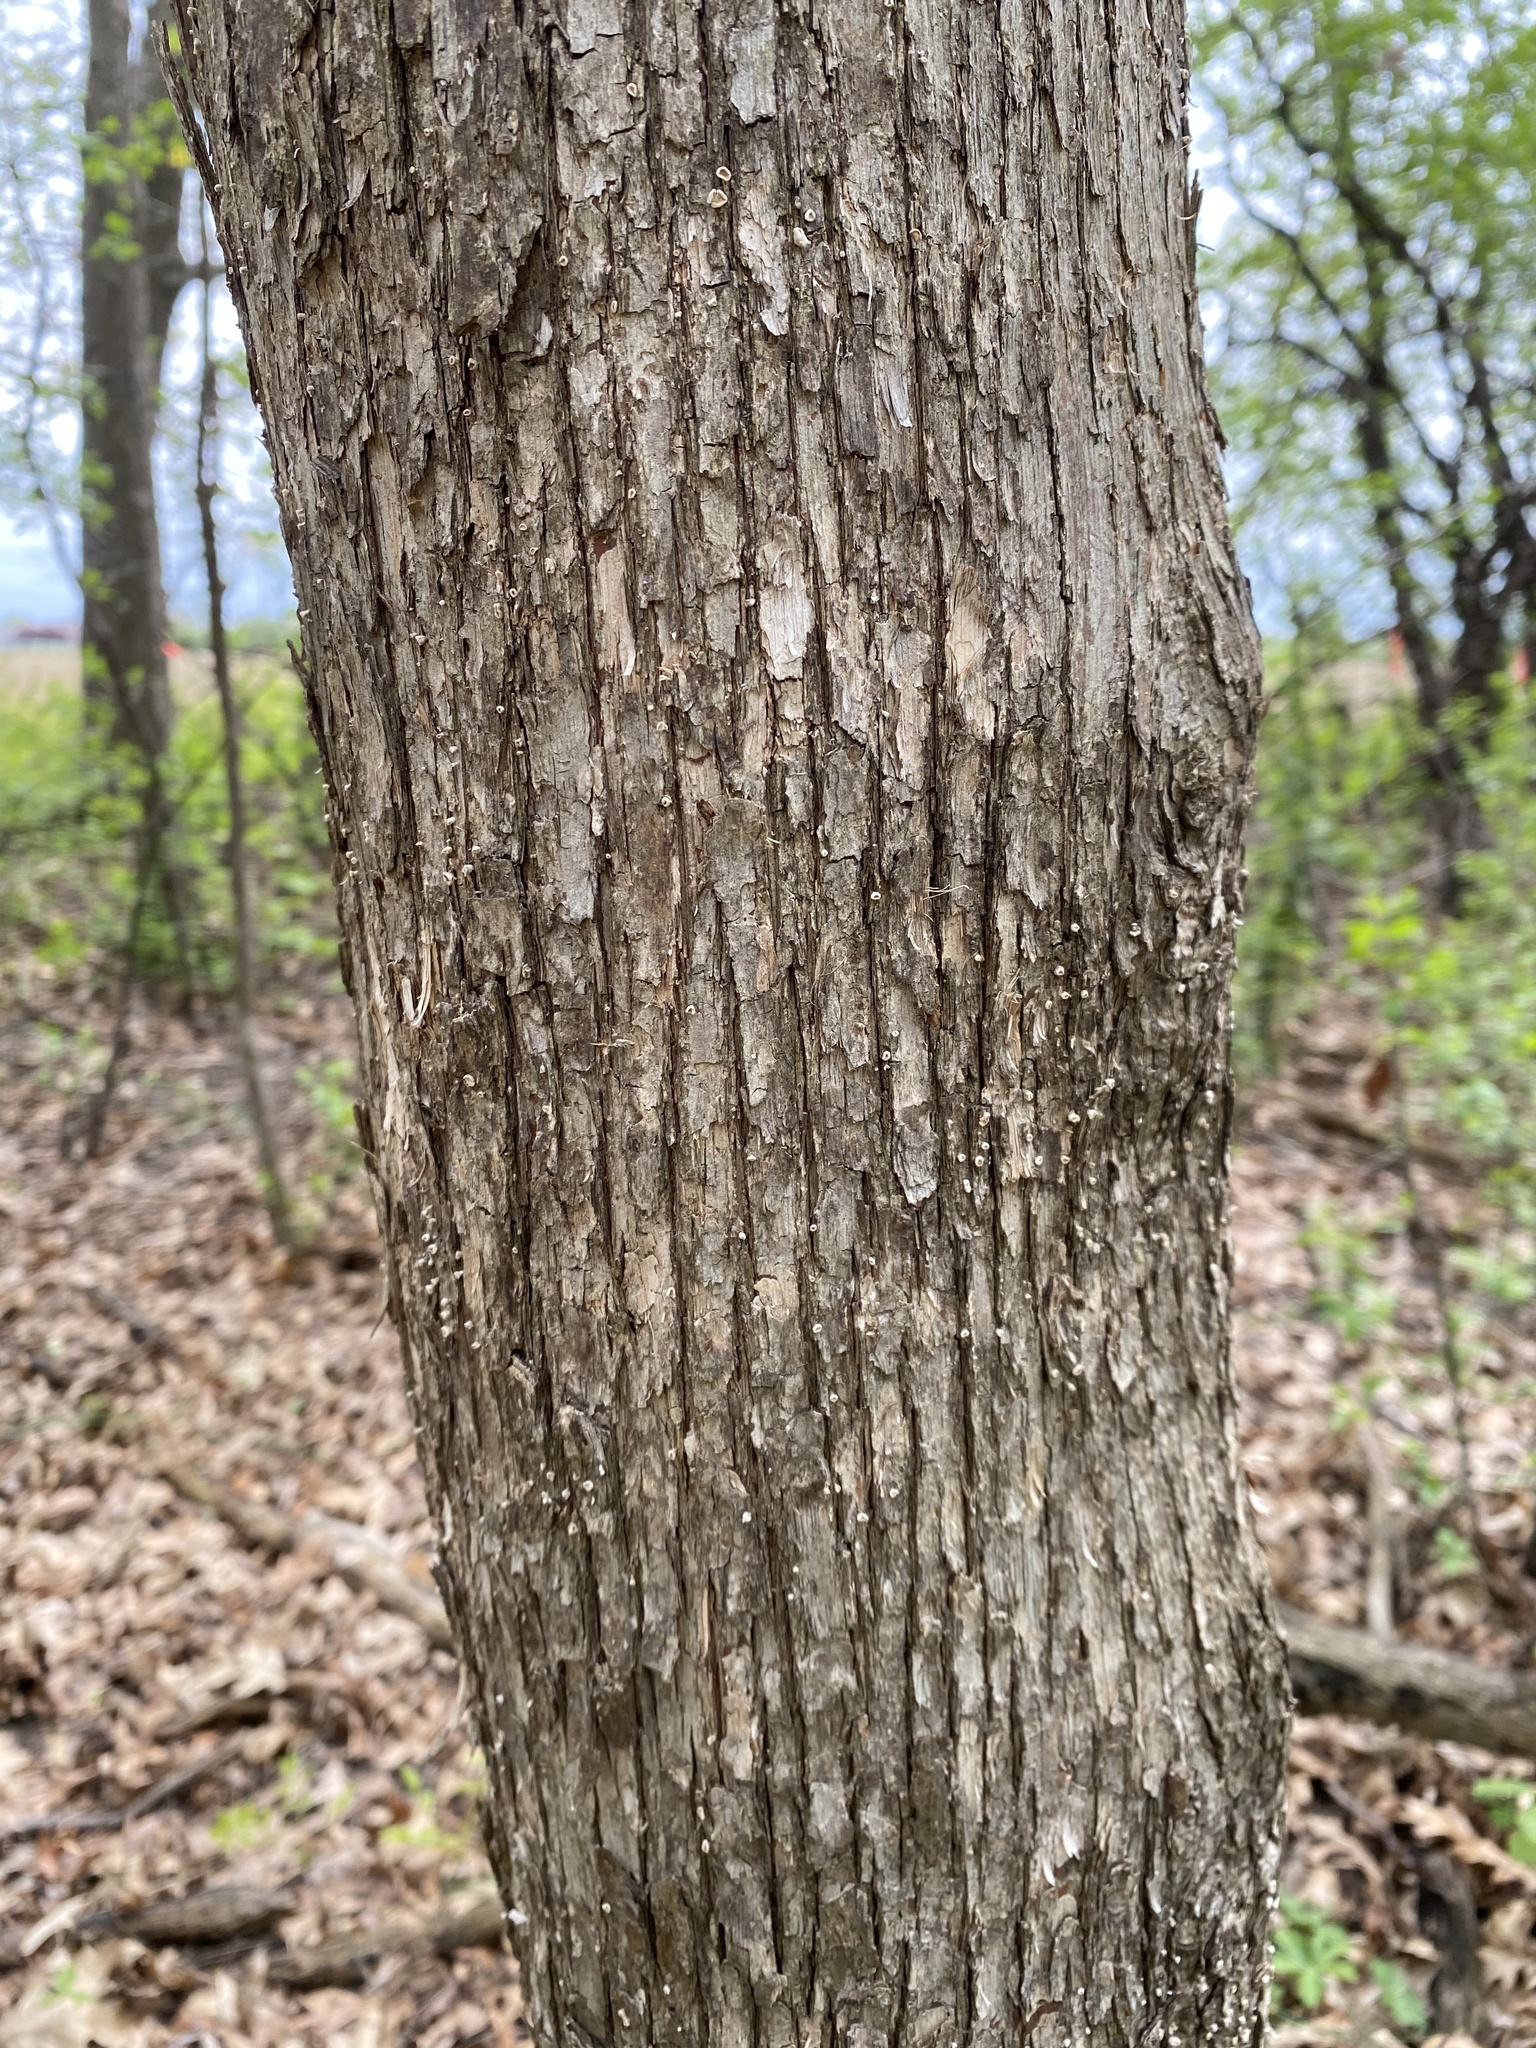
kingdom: Plantae
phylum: Tracheophyta
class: Magnoliopsida
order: Fagales
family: Betulaceae
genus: Ostrya
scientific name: Ostrya virginiana
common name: Ironwood
